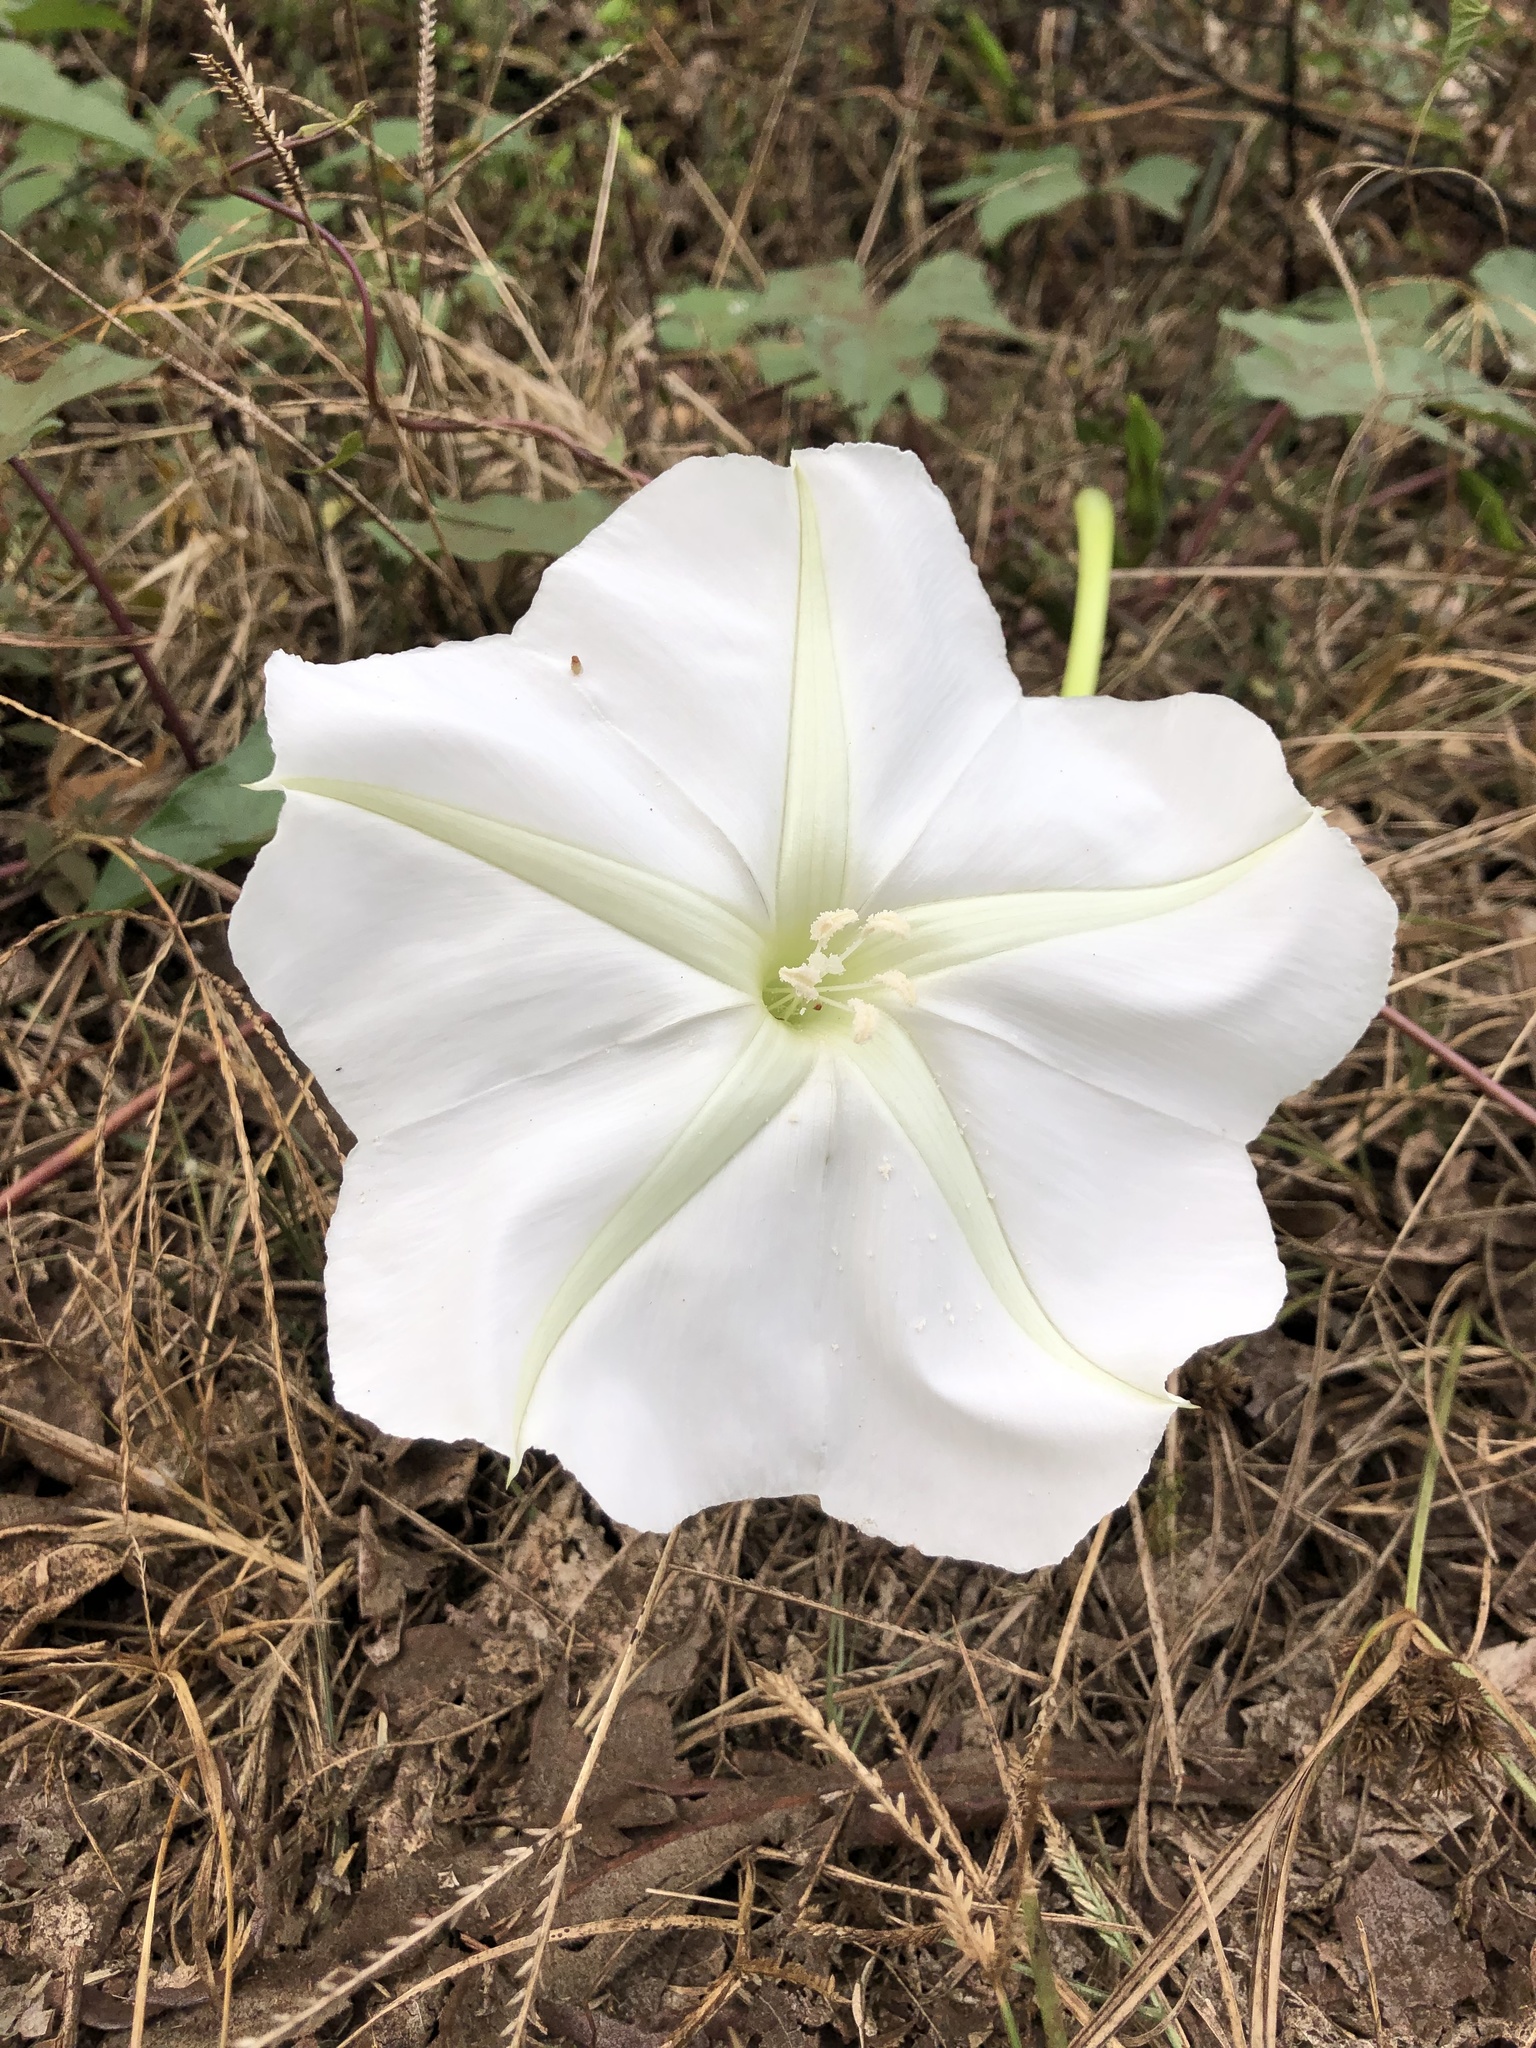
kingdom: Plantae
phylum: Tracheophyta
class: Magnoliopsida
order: Solanales
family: Convolvulaceae
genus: Ipomoea
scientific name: Ipomoea alba
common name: Moonflower
